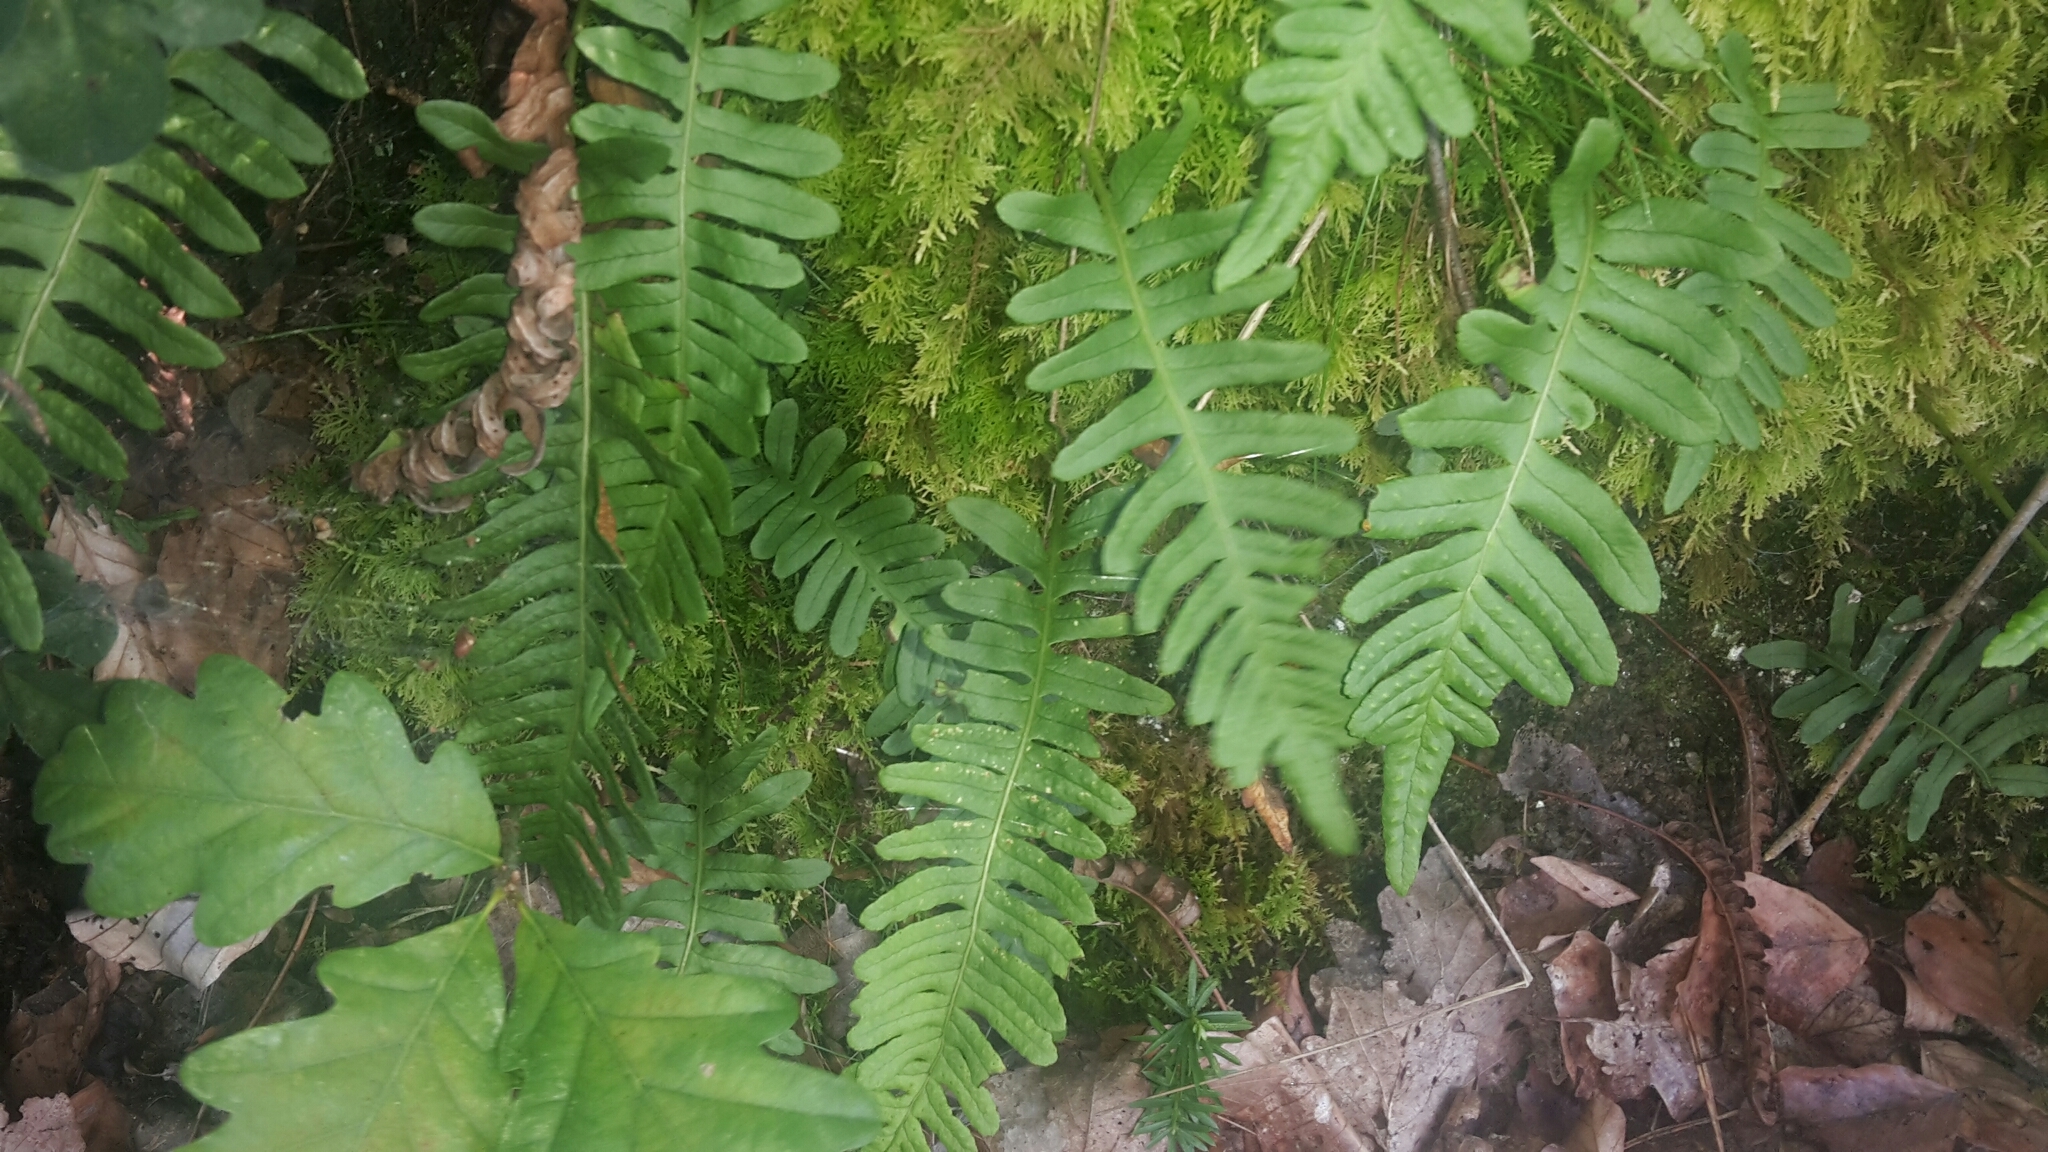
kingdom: Plantae
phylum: Tracheophyta
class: Polypodiopsida
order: Polypodiales
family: Polypodiaceae
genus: Polypodium
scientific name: Polypodium vulgare
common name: Common polypody
